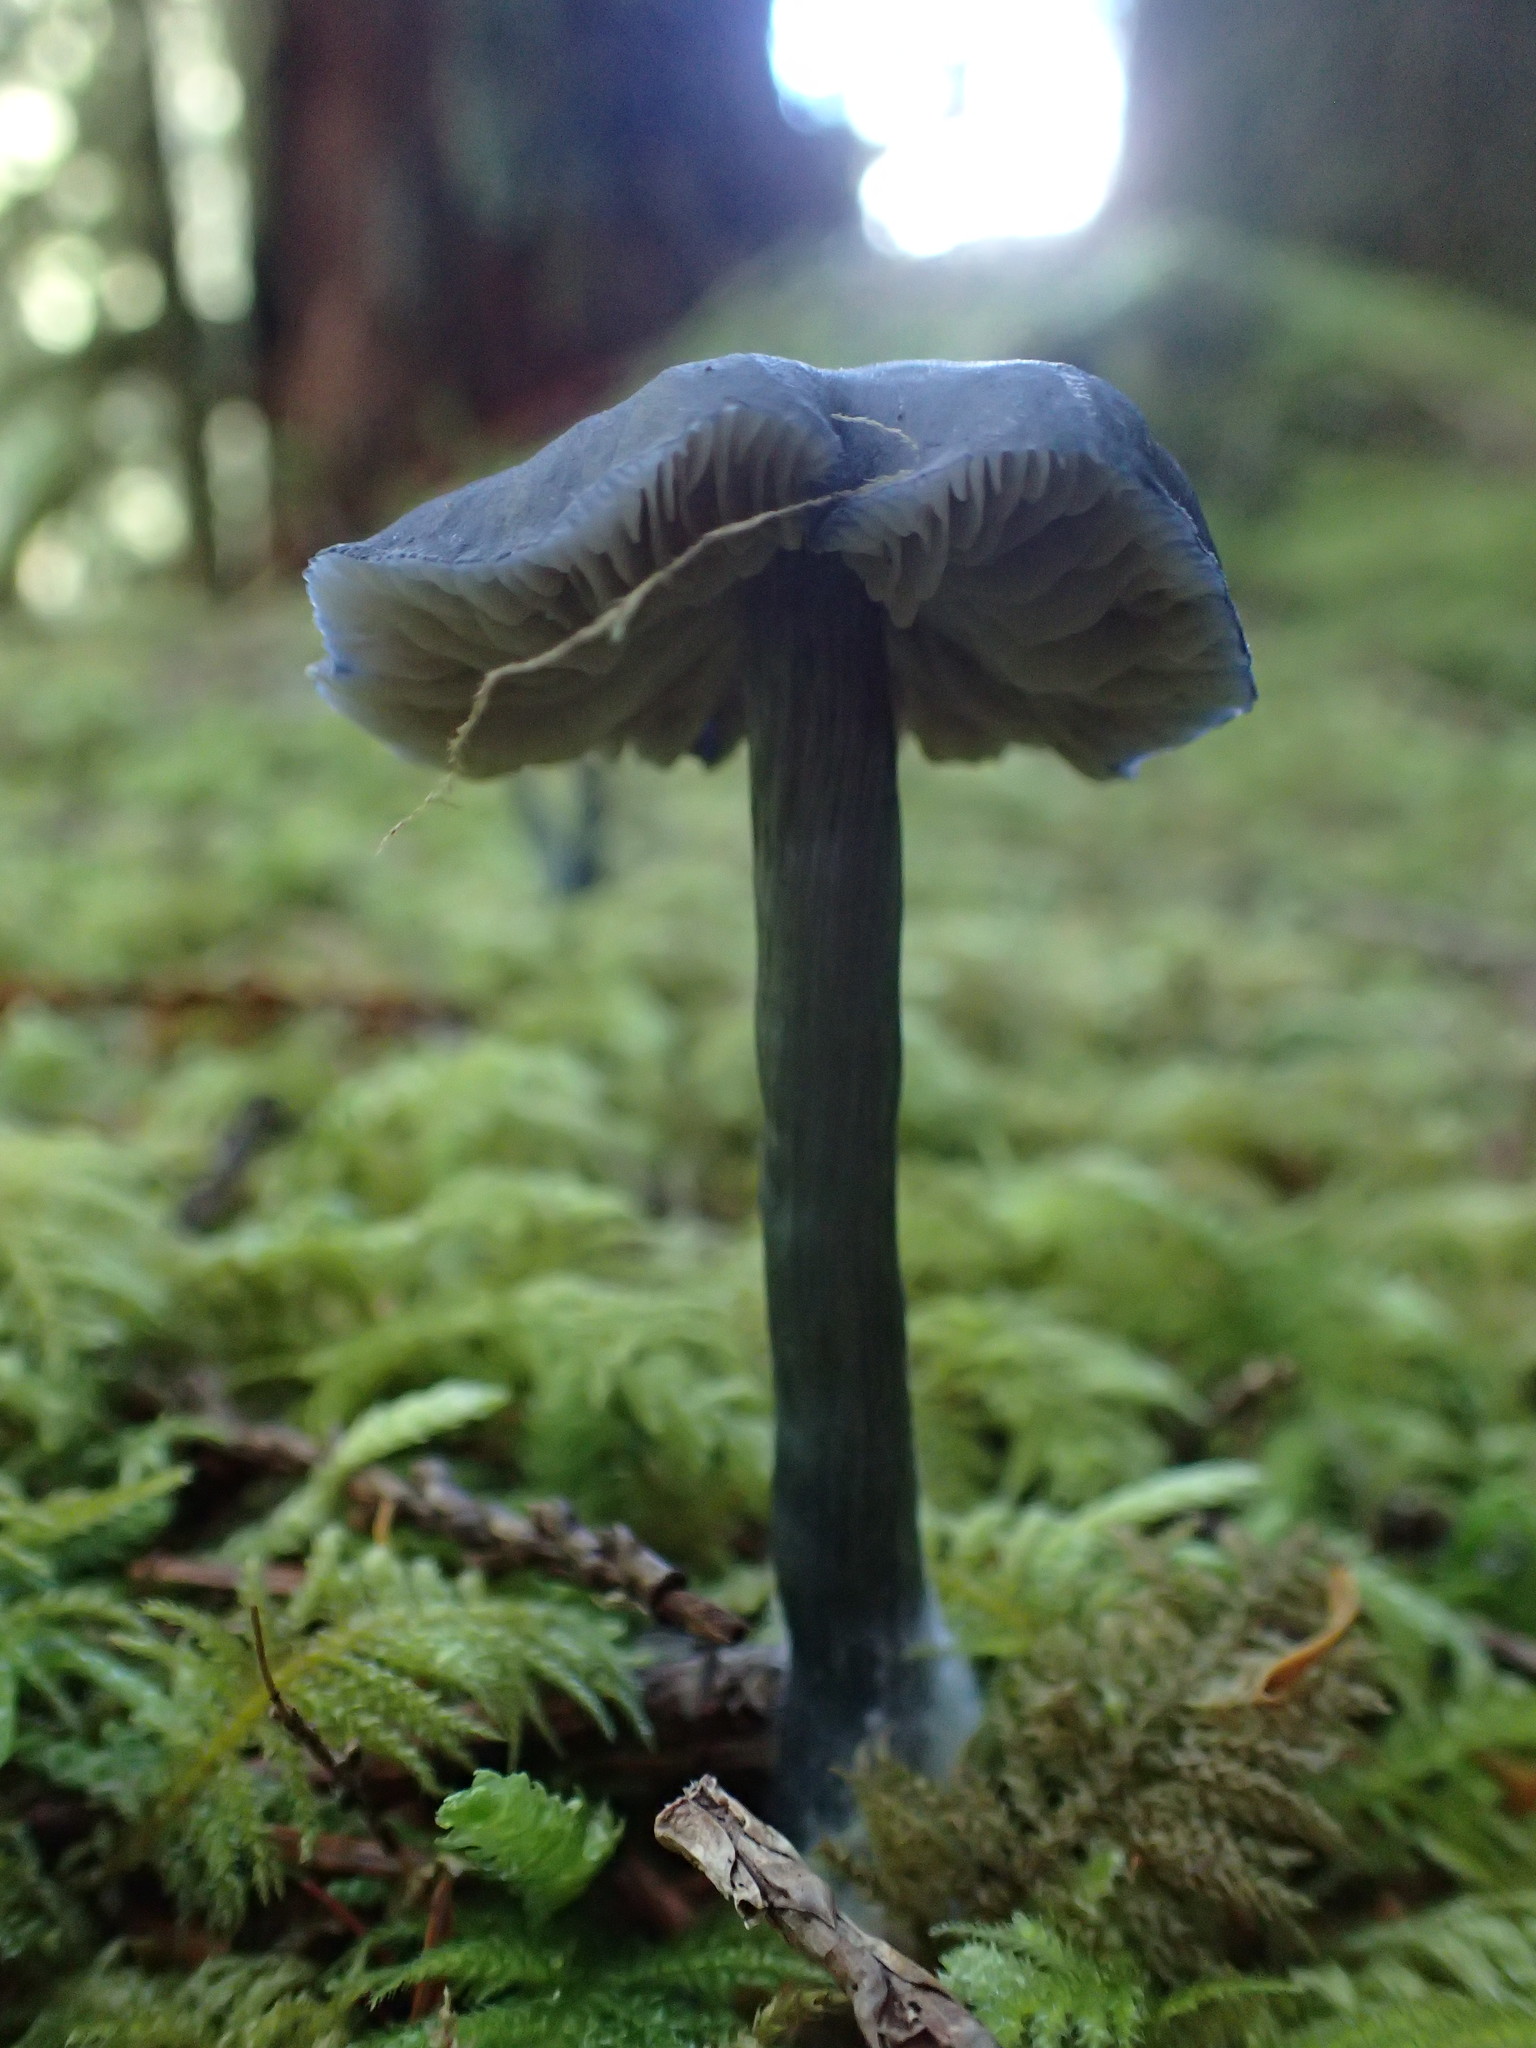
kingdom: Fungi
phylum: Basidiomycota
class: Agaricomycetes
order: Agaricales
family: Entolomataceae
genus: Entocybe
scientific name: Entocybe nitida
